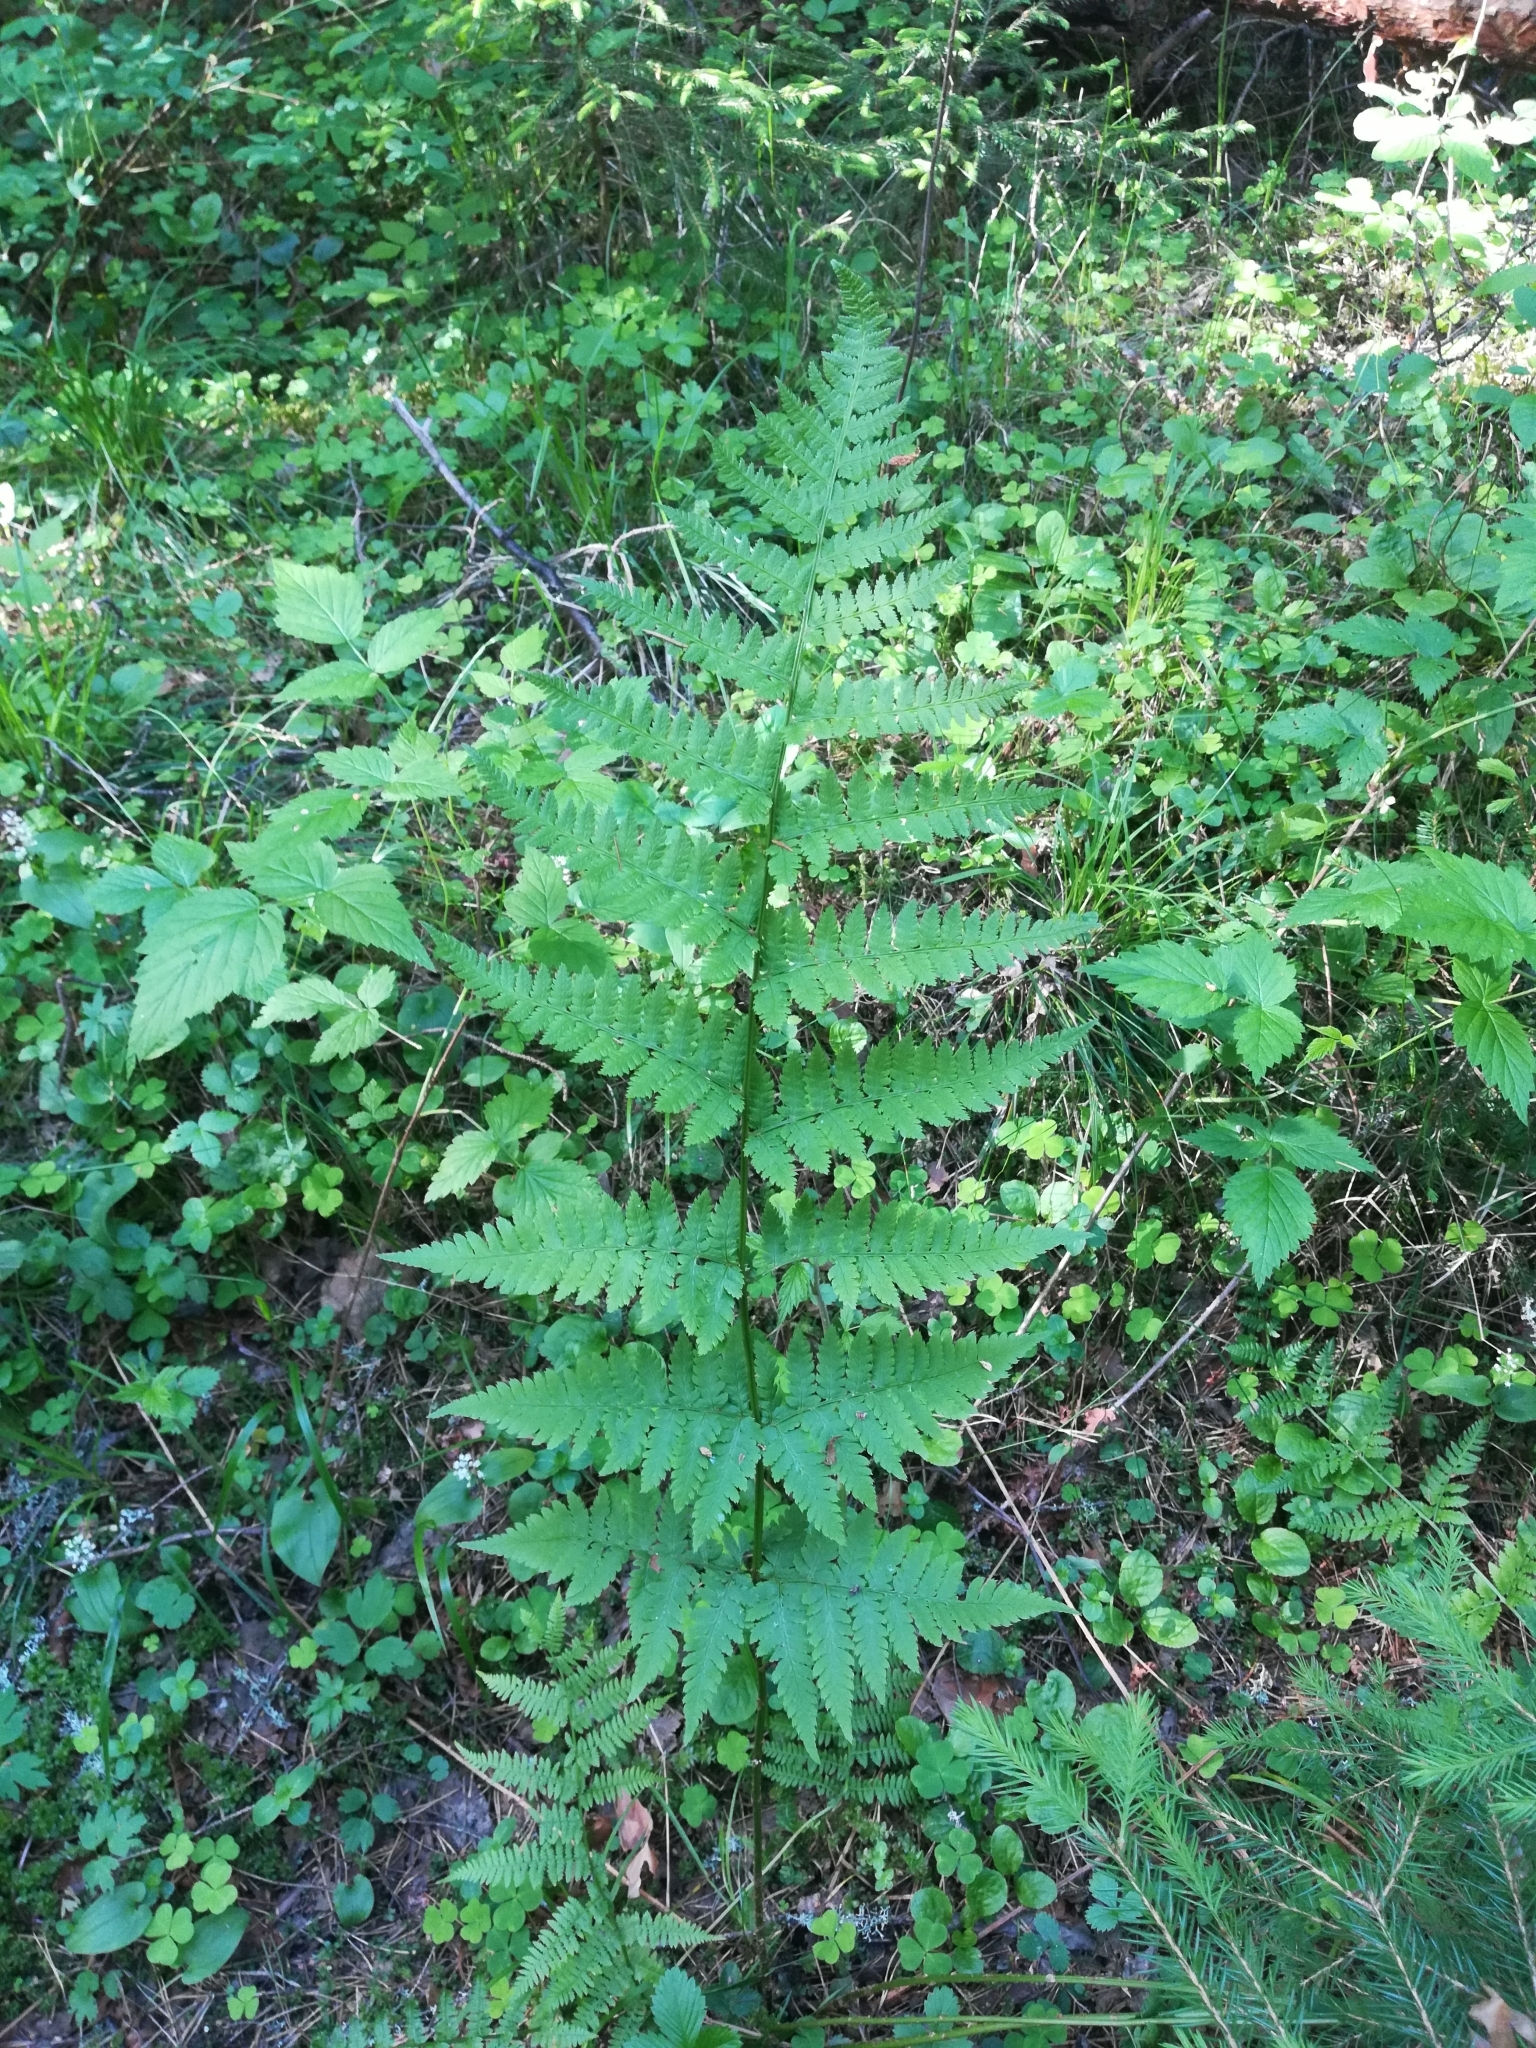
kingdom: Plantae
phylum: Tracheophyta
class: Polypodiopsida
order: Polypodiales
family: Dryopteridaceae
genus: Dryopteris
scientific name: Dryopteris carthusiana
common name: Narrow buckler-fern
